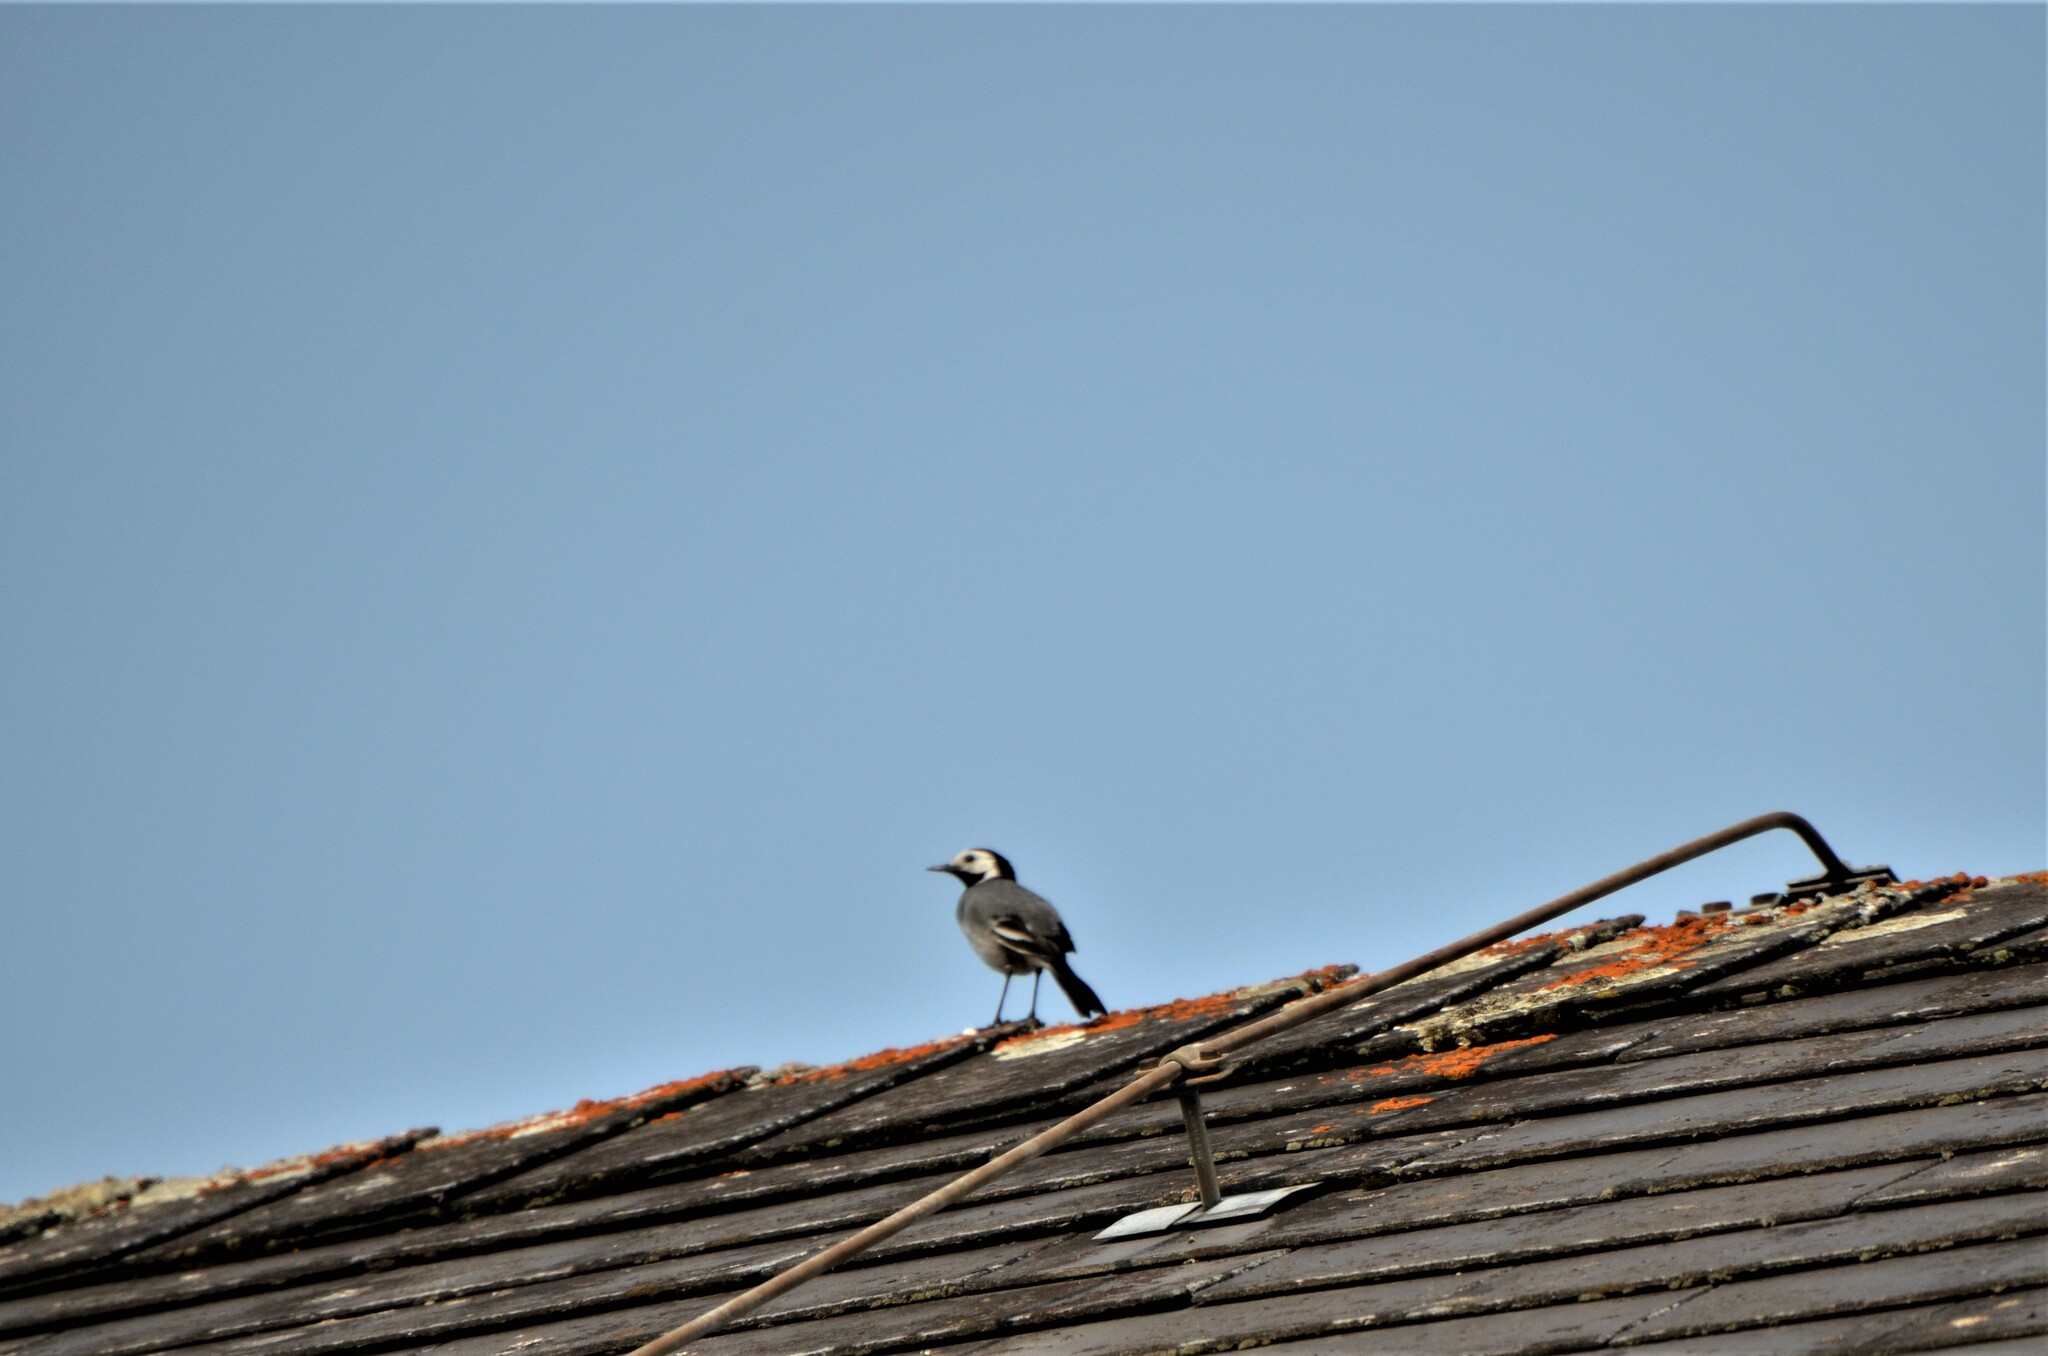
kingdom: Animalia
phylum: Chordata
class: Aves
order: Passeriformes
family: Motacillidae
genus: Motacilla
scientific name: Motacilla alba
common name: White wagtail
